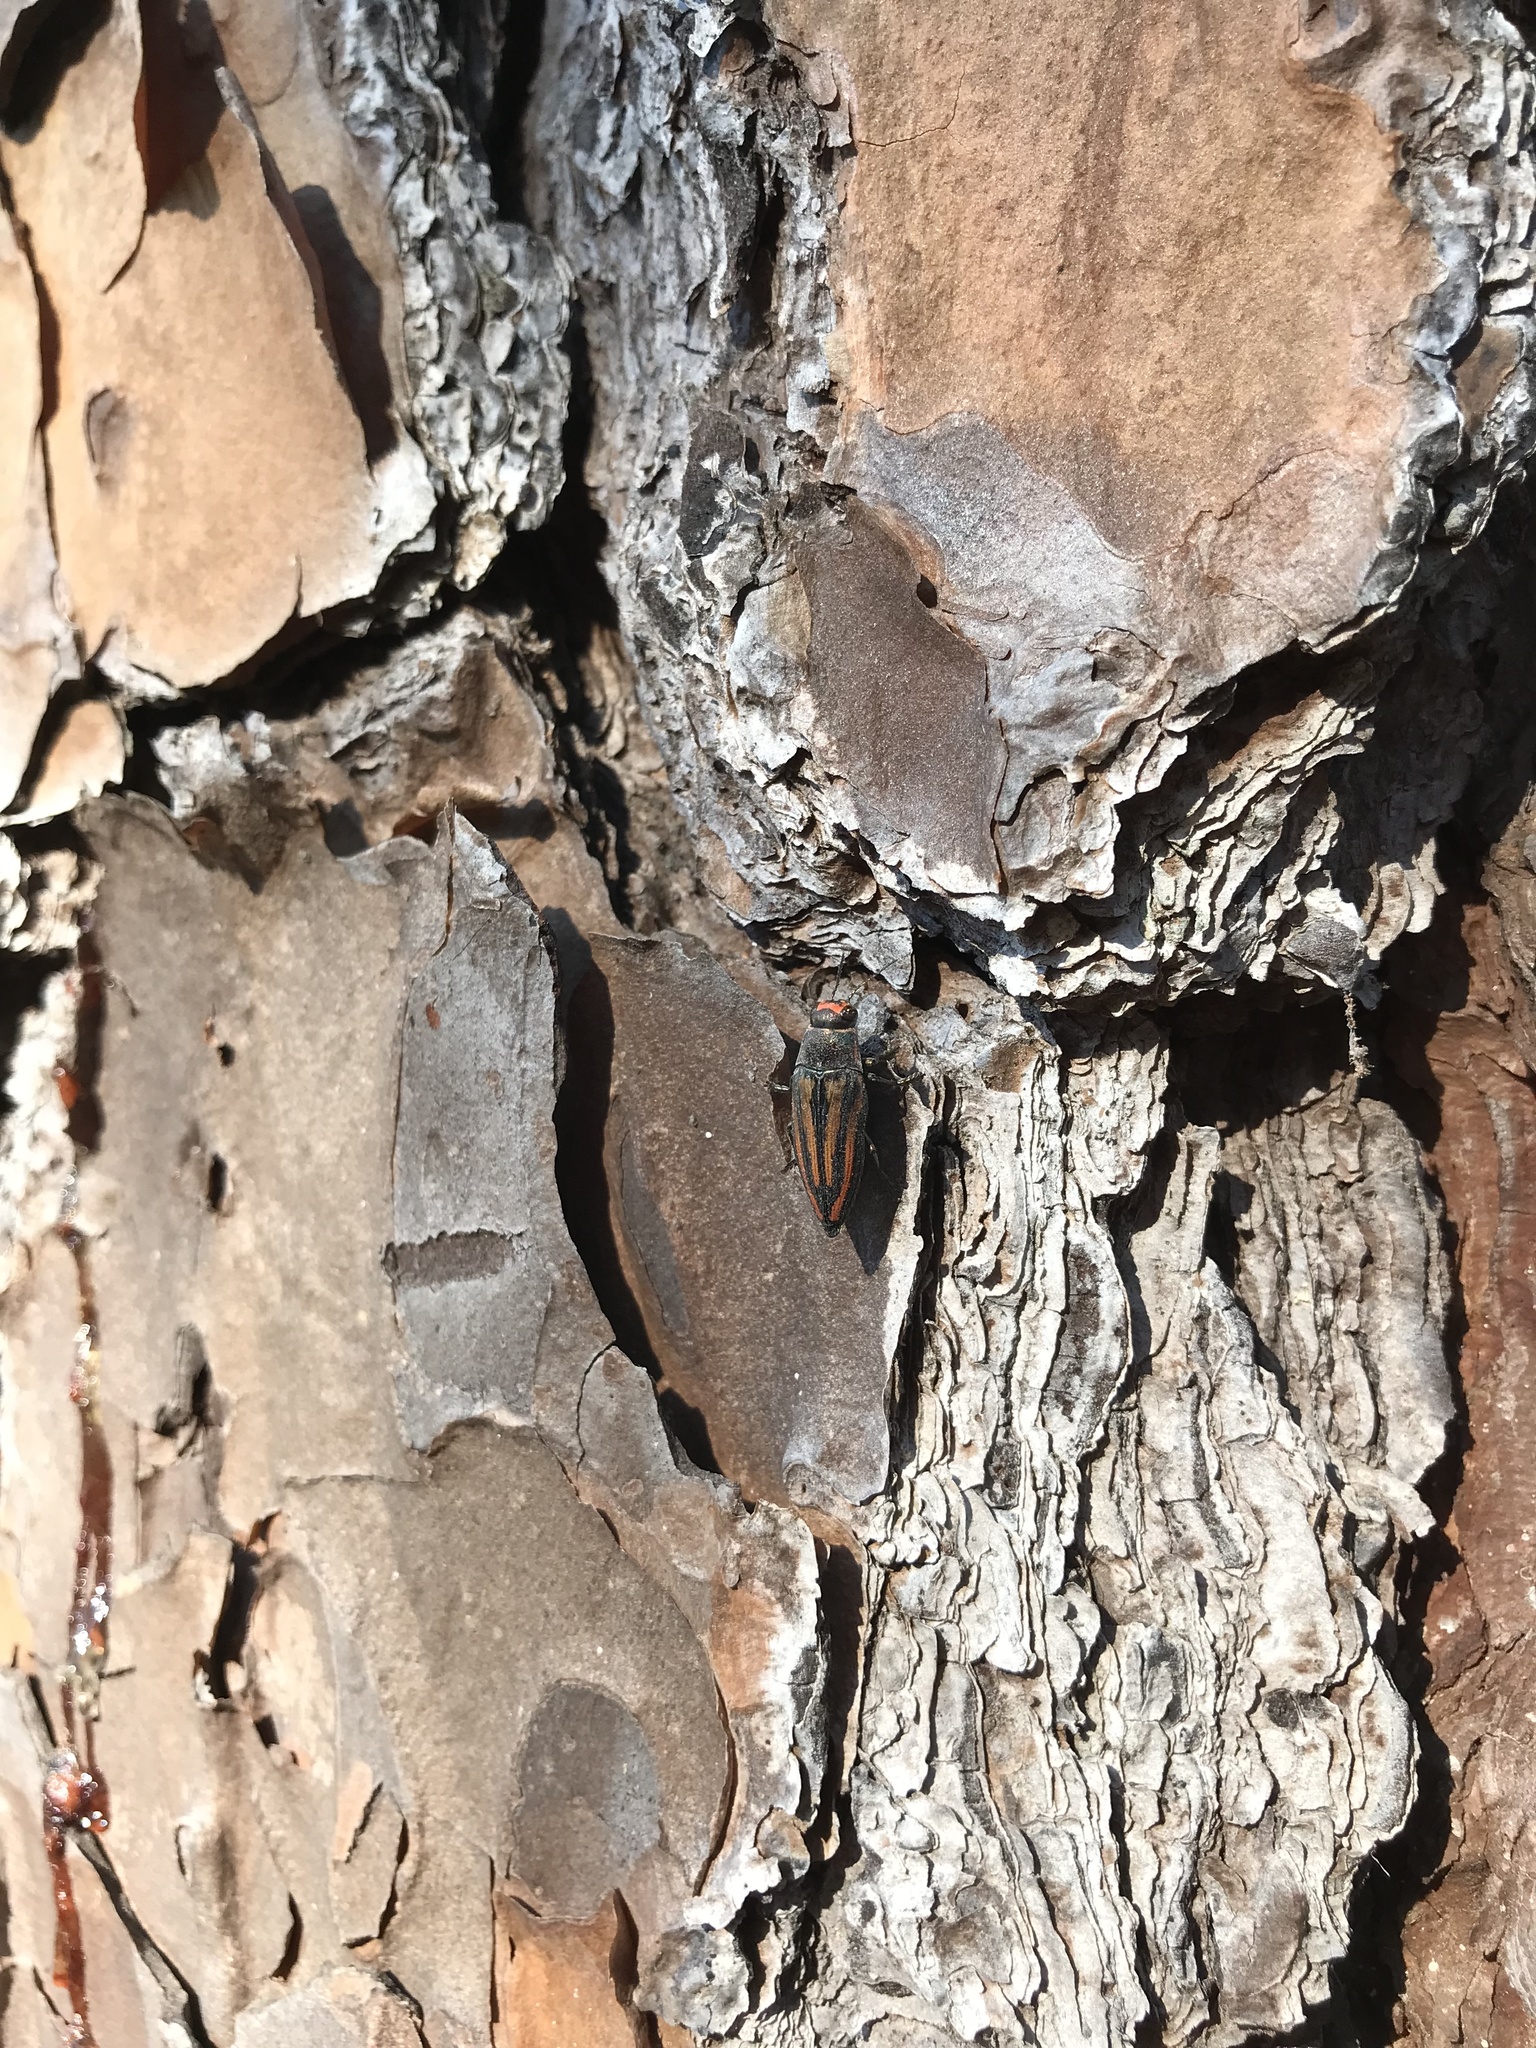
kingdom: Animalia
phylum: Arthropoda
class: Insecta
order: Coleoptera
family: Buprestidae
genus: Buprestis
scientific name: Buprestis lineata
